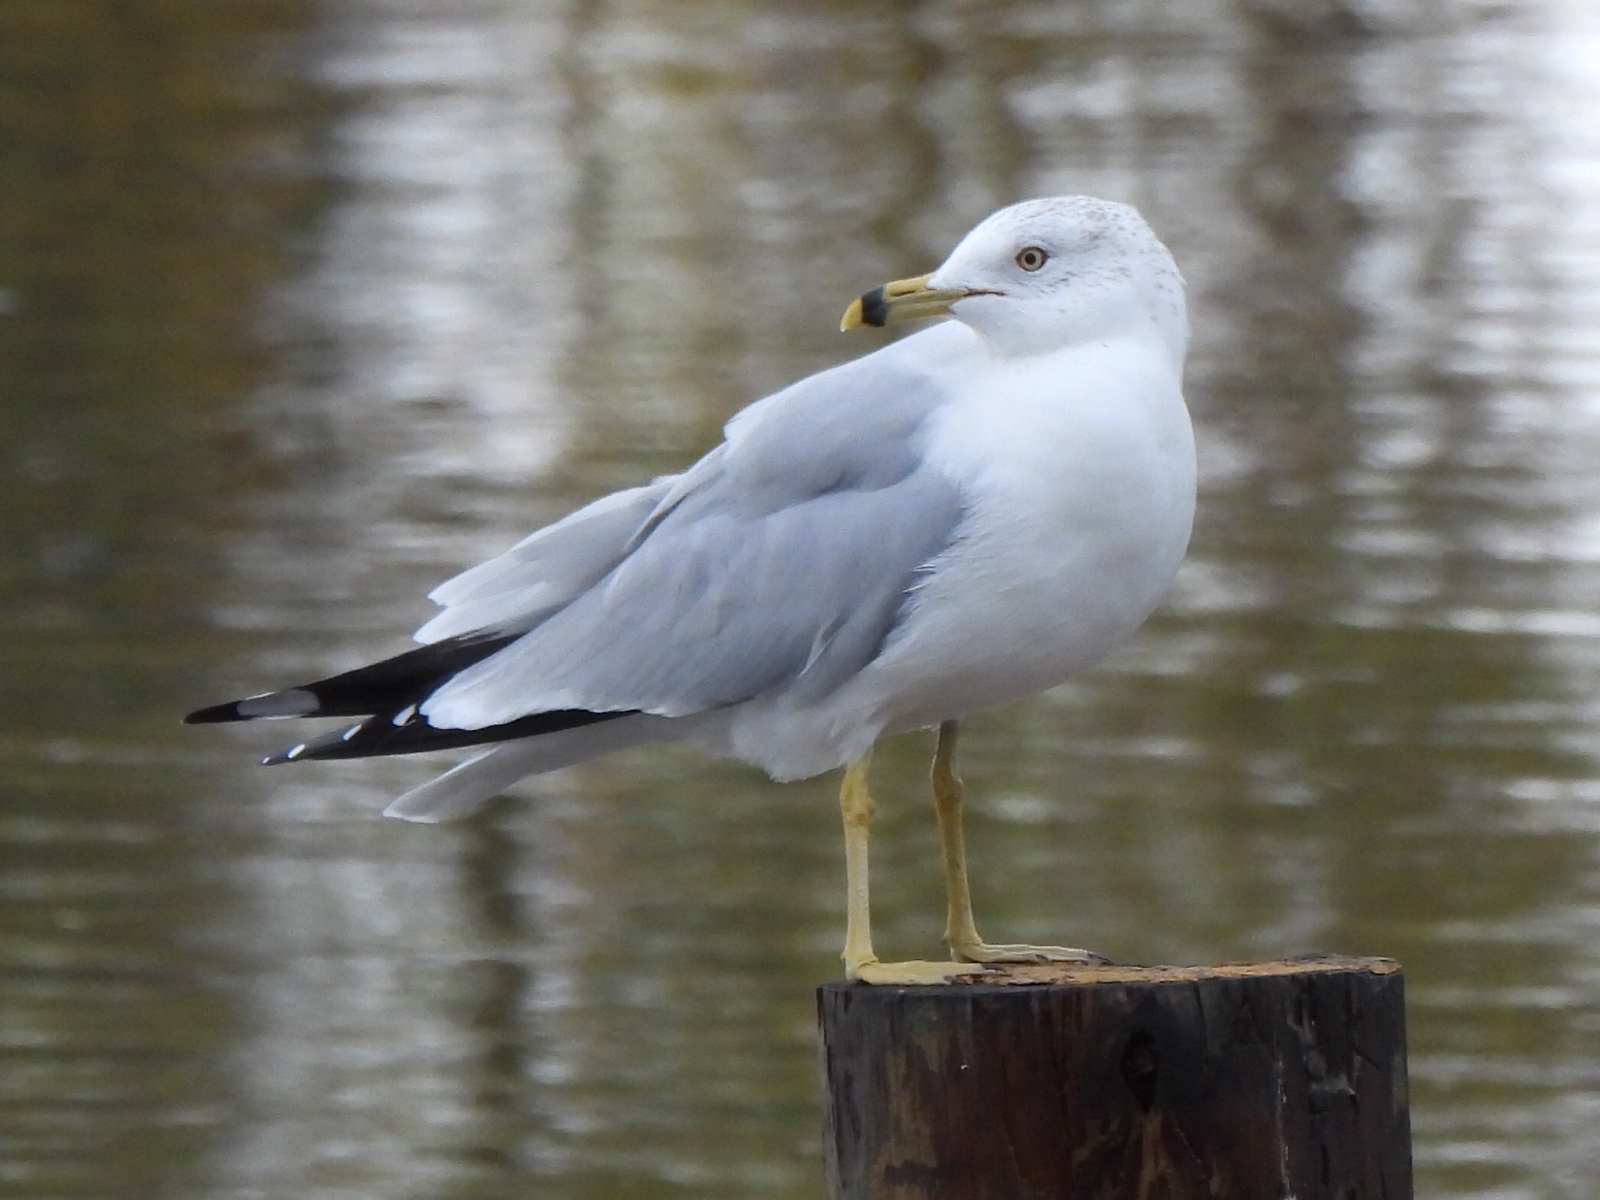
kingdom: Animalia
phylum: Chordata
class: Aves
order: Charadriiformes
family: Laridae
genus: Larus
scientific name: Larus delawarensis
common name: Ring-billed gull
